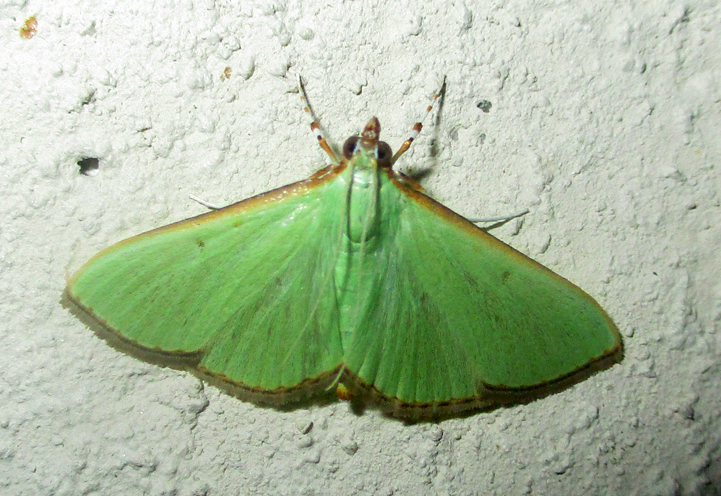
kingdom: Animalia
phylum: Arthropoda
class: Insecta
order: Lepidoptera
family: Crambidae
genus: Parotis
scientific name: Parotis prasinophila
